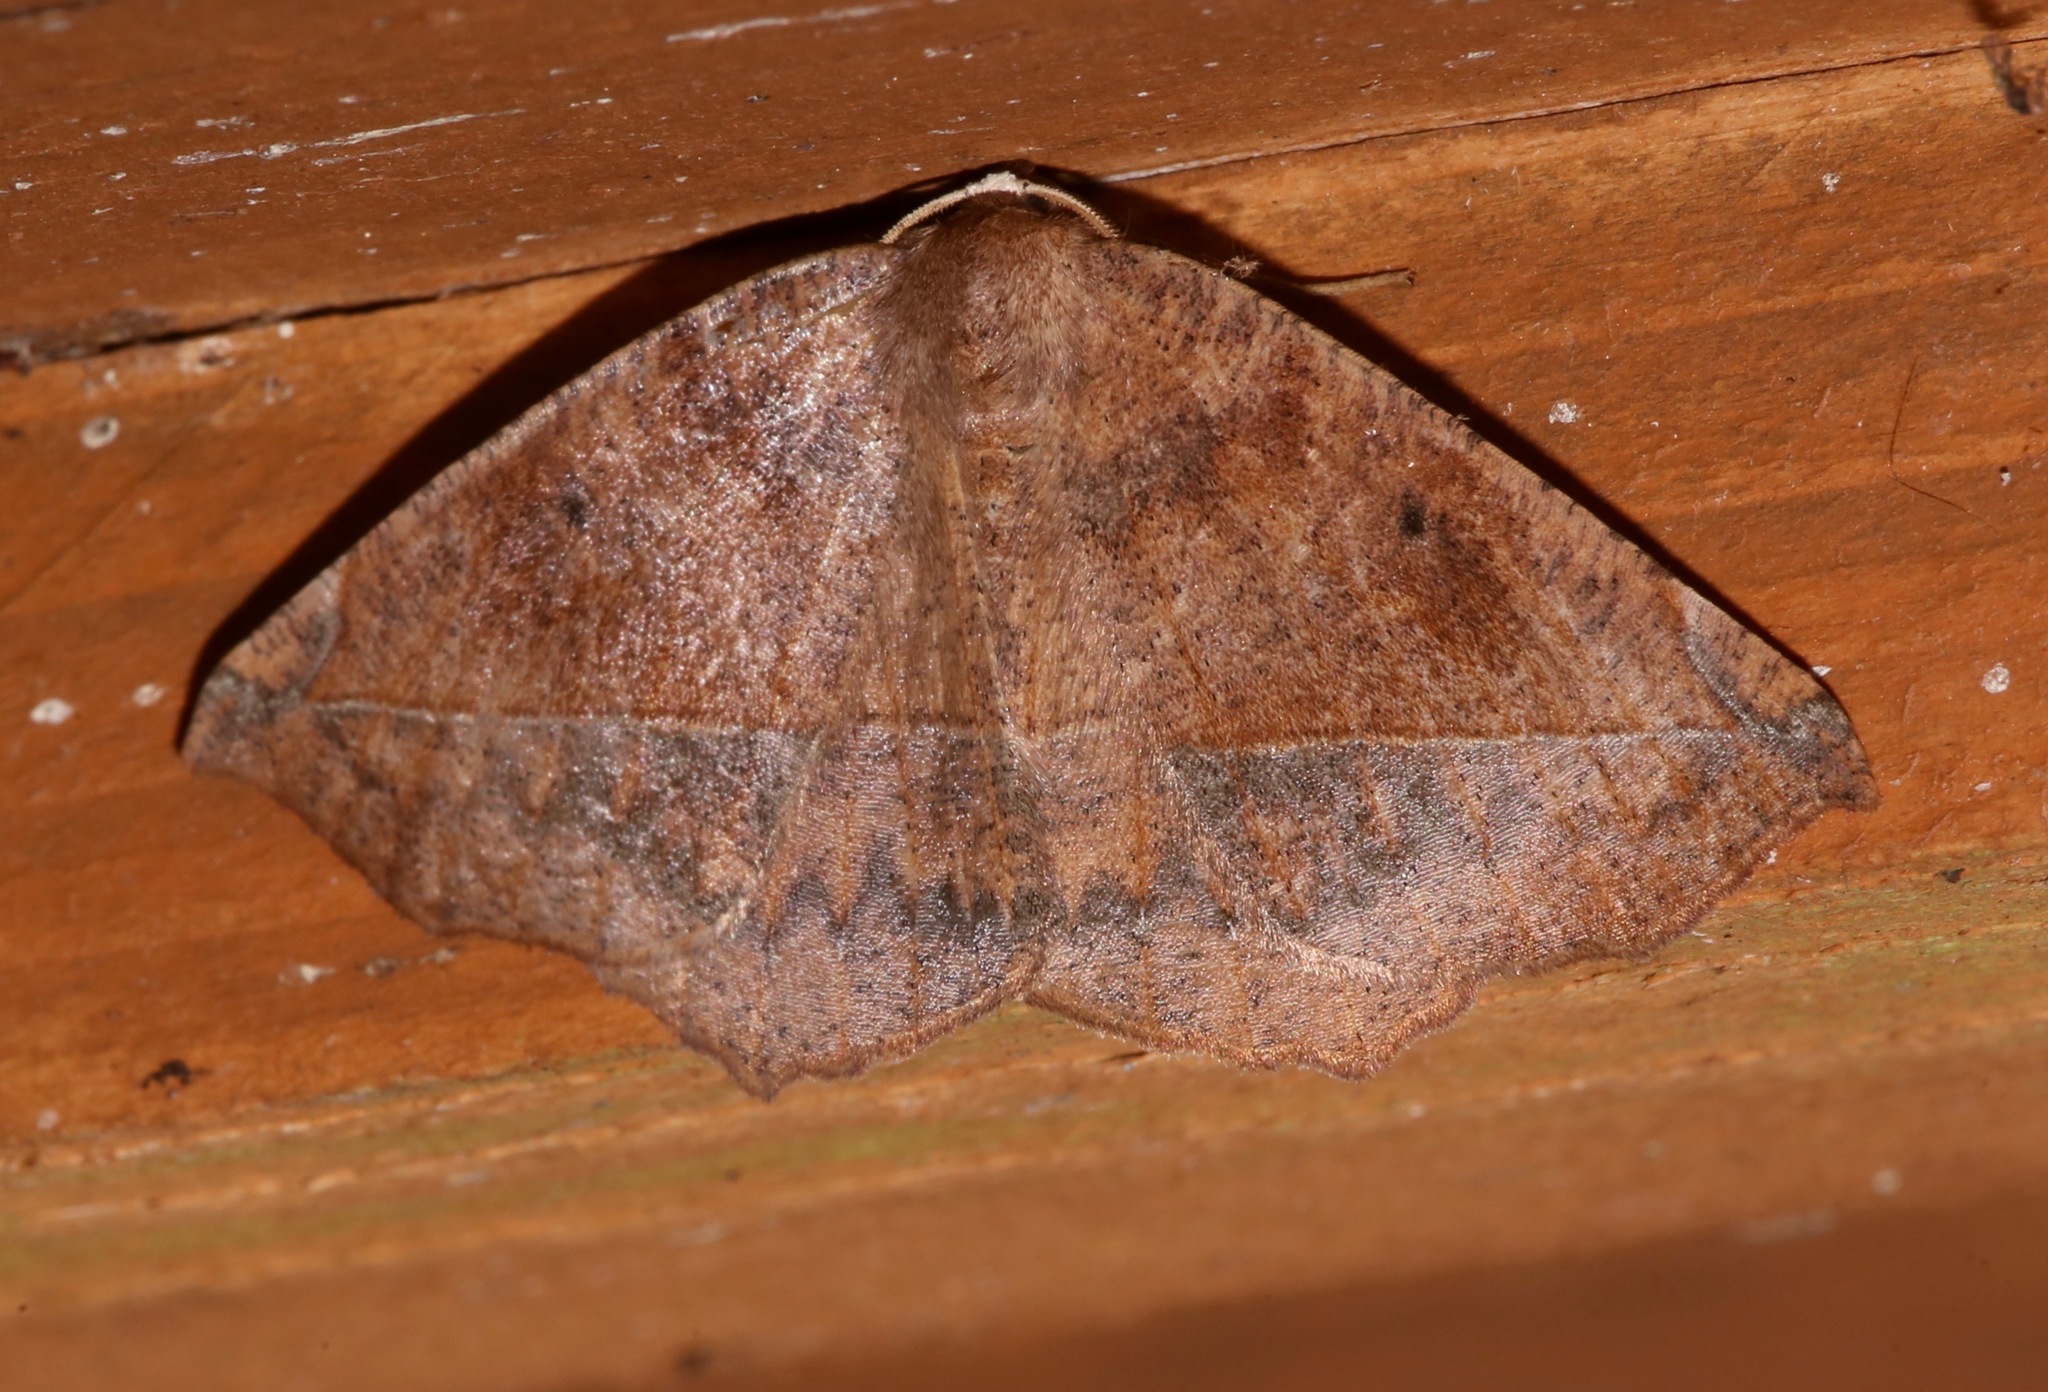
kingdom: Animalia
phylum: Arthropoda
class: Insecta
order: Lepidoptera
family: Geometridae
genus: Eutrapela
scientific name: Eutrapela clemataria
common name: Curved-toothed geometer
